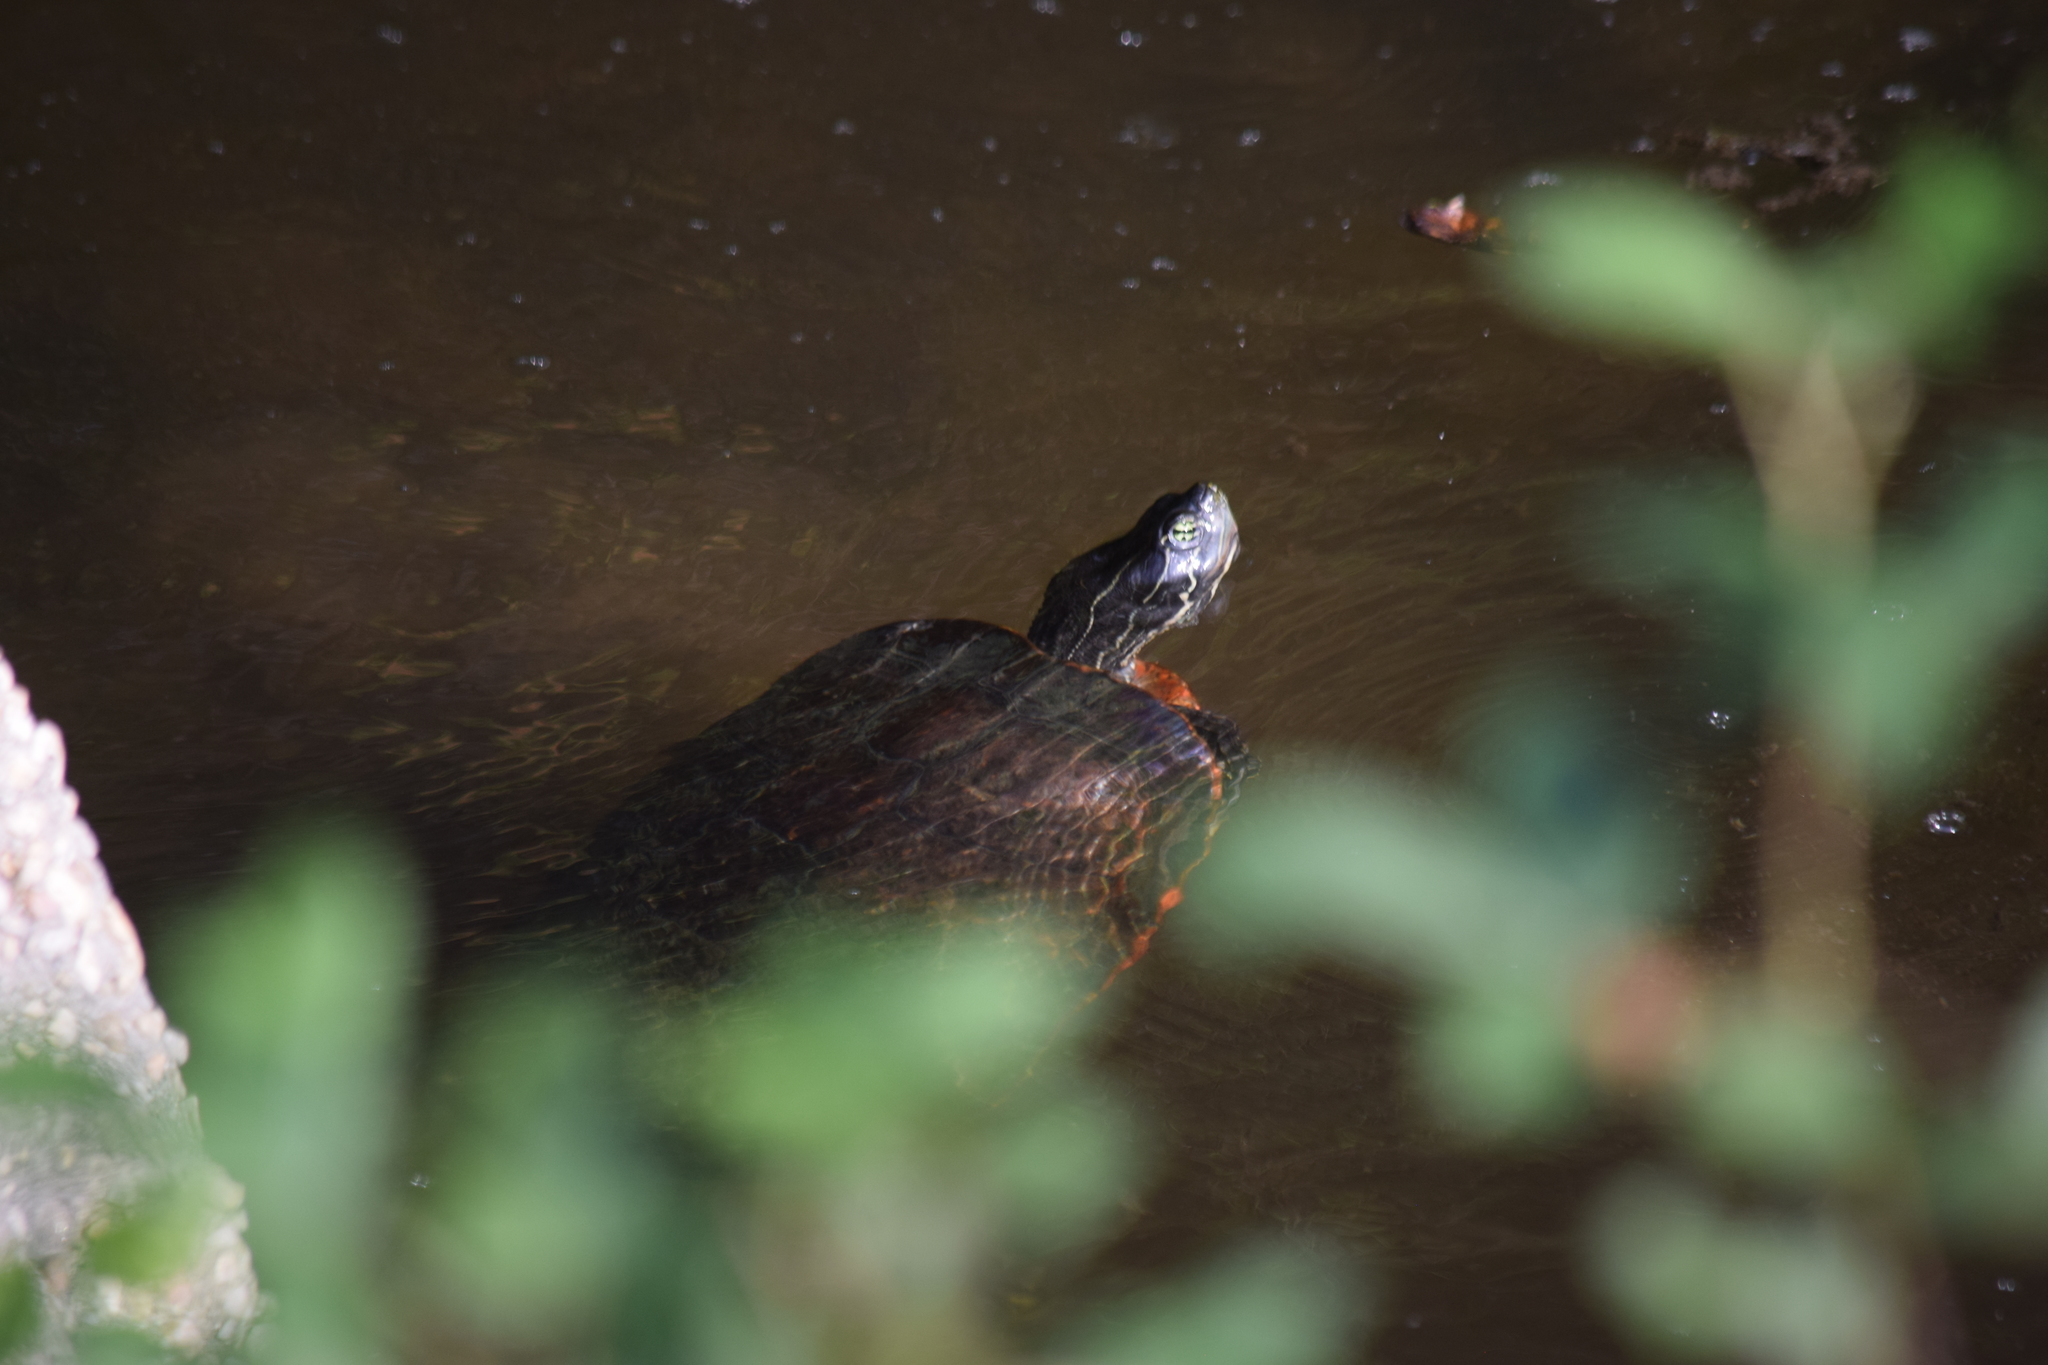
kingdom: Animalia
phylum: Chordata
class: Testudines
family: Emydidae
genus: Pseudemys
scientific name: Pseudemys rubriventris
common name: American red-bellied turtle
